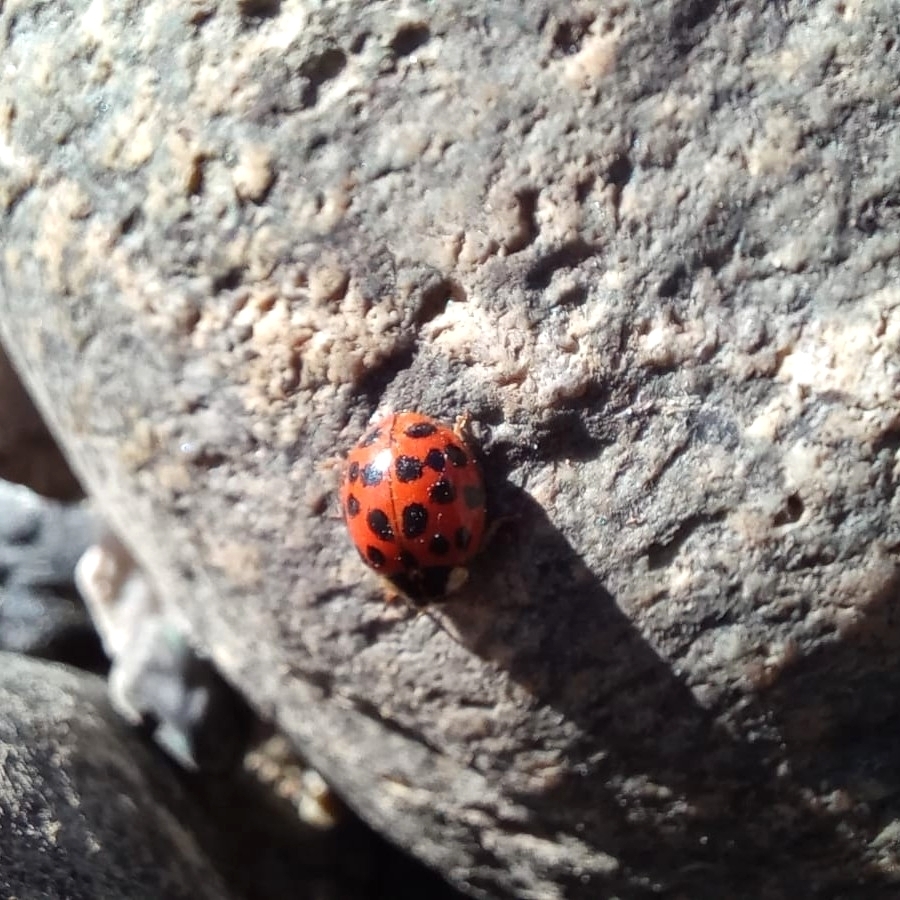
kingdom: Animalia
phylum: Arthropoda
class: Insecta
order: Coleoptera
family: Coccinellidae
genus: Harmonia
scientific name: Harmonia axyridis
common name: Harlequin ladybird
